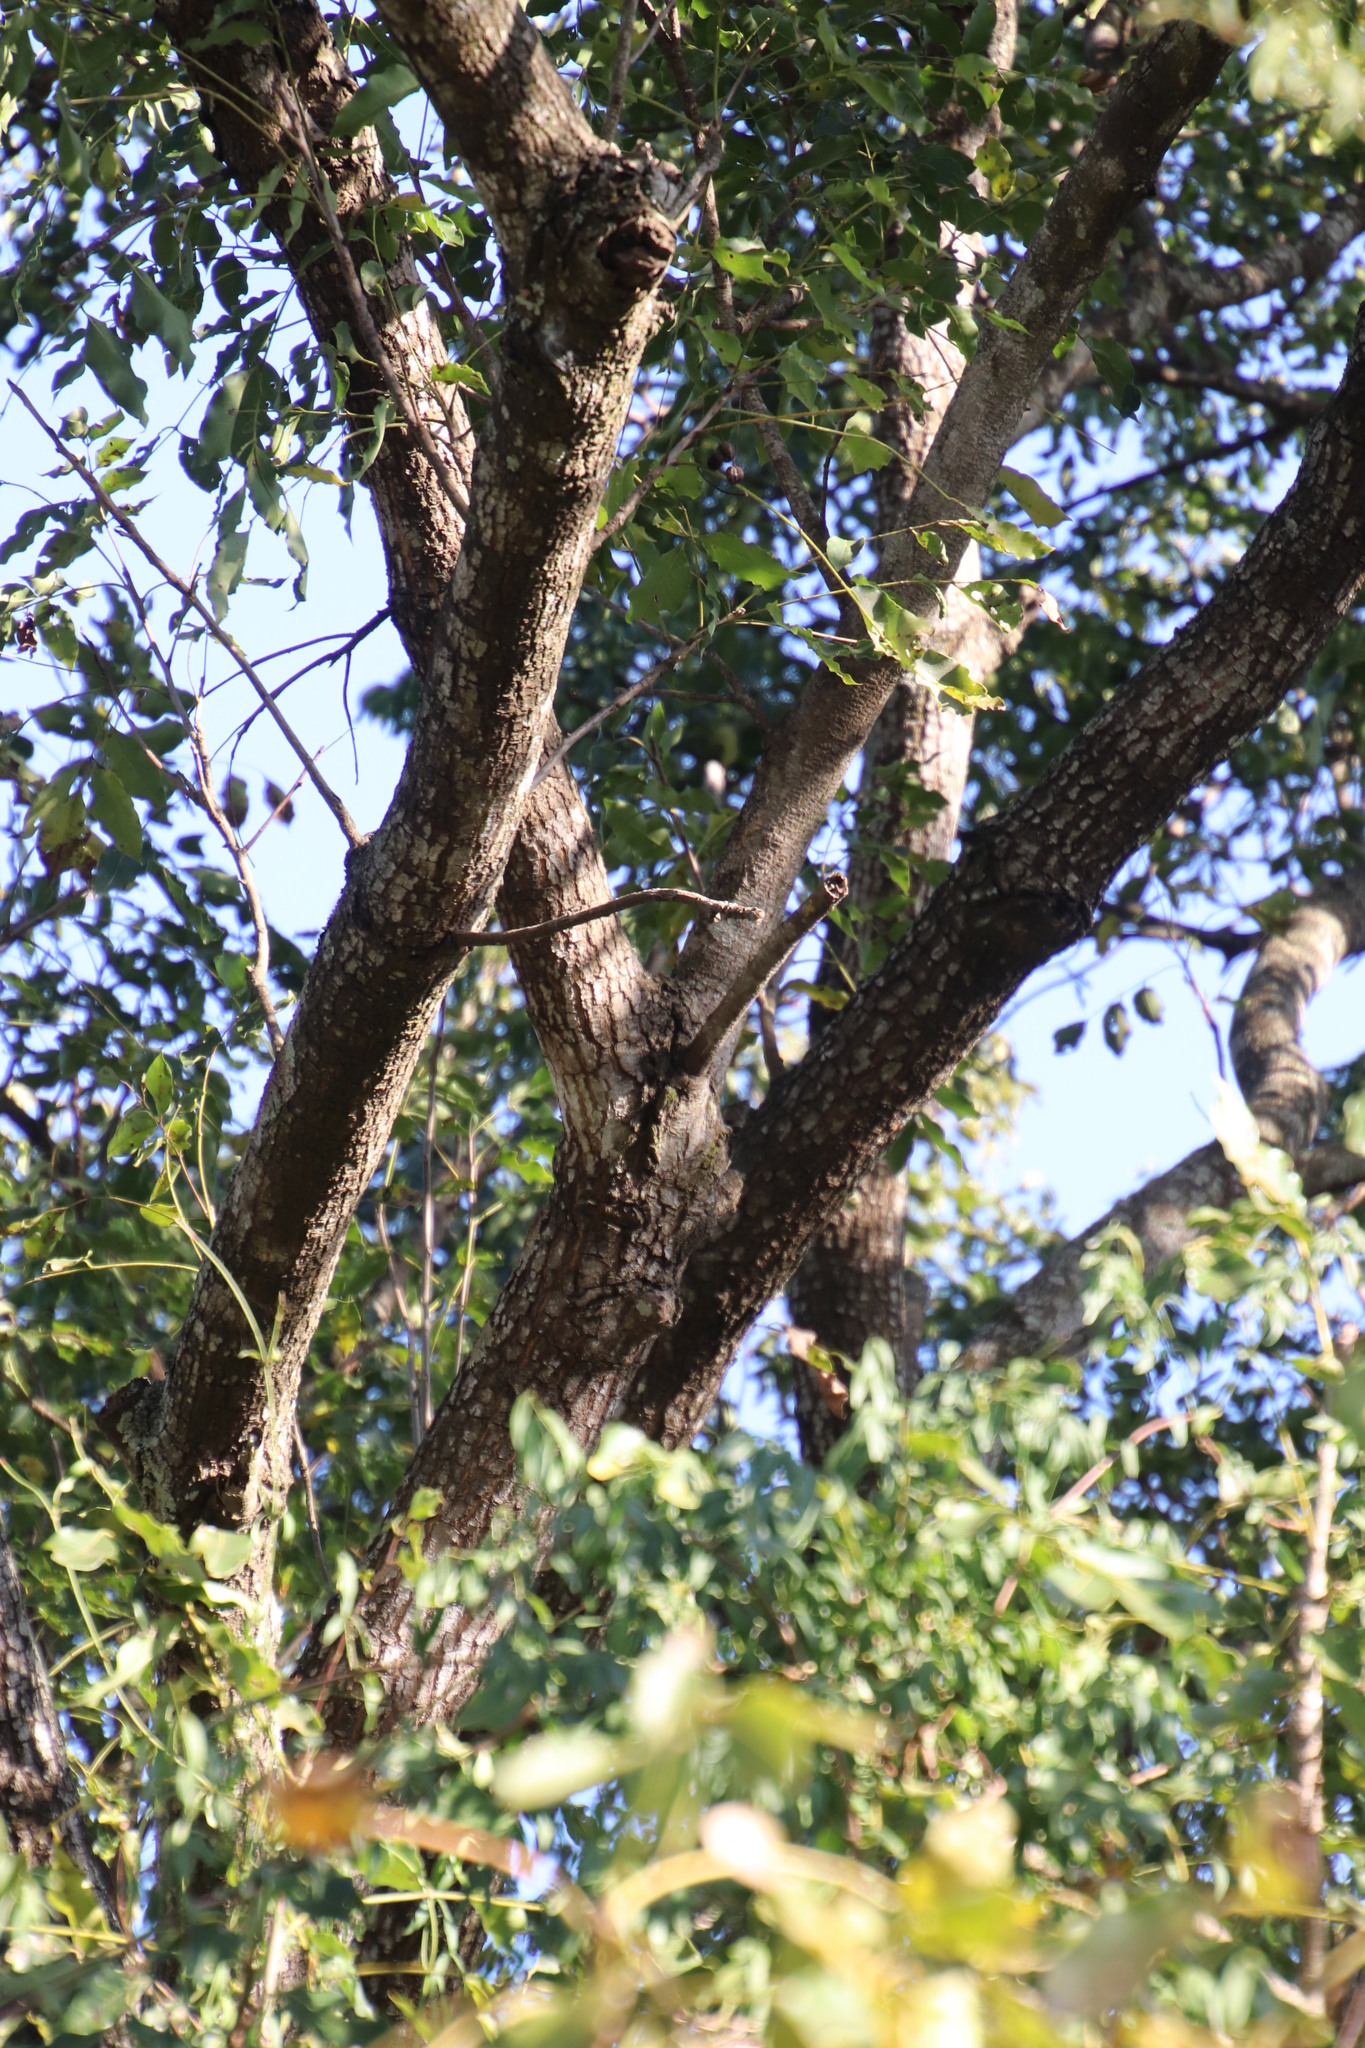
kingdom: Plantae
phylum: Tracheophyta
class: Magnoliopsida
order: Sapindales
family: Meliaceae
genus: Ekebergia
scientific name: Ekebergia capensis
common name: Cape-ash
